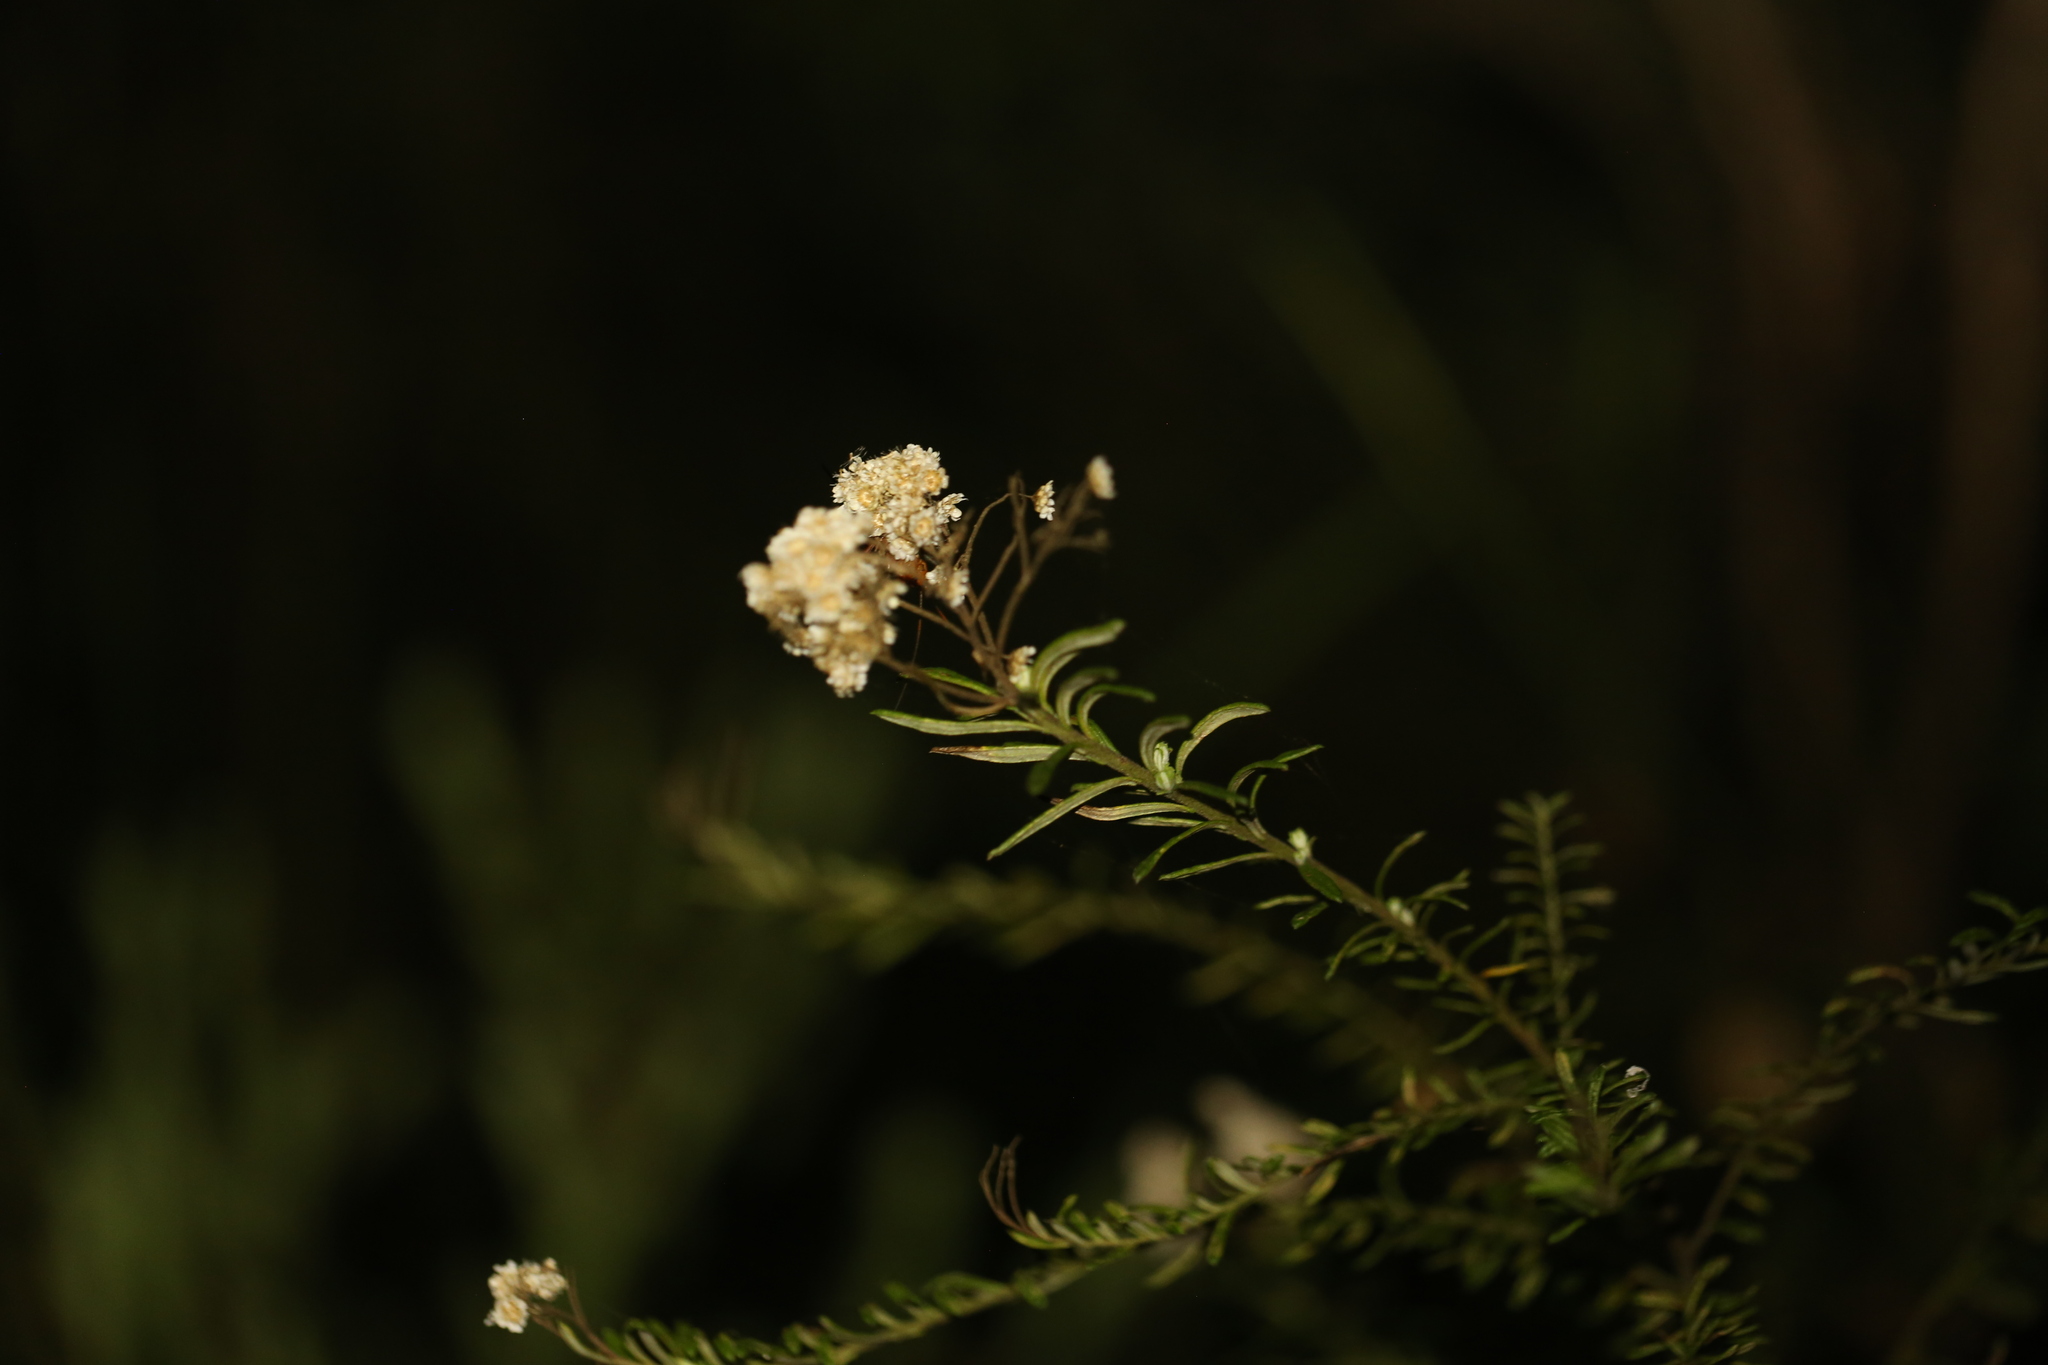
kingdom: Plantae
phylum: Tracheophyta
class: Magnoliopsida
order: Asterales
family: Asteraceae
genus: Ozothamnus
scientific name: Ozothamnus diosmifolius
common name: White-dogwood
